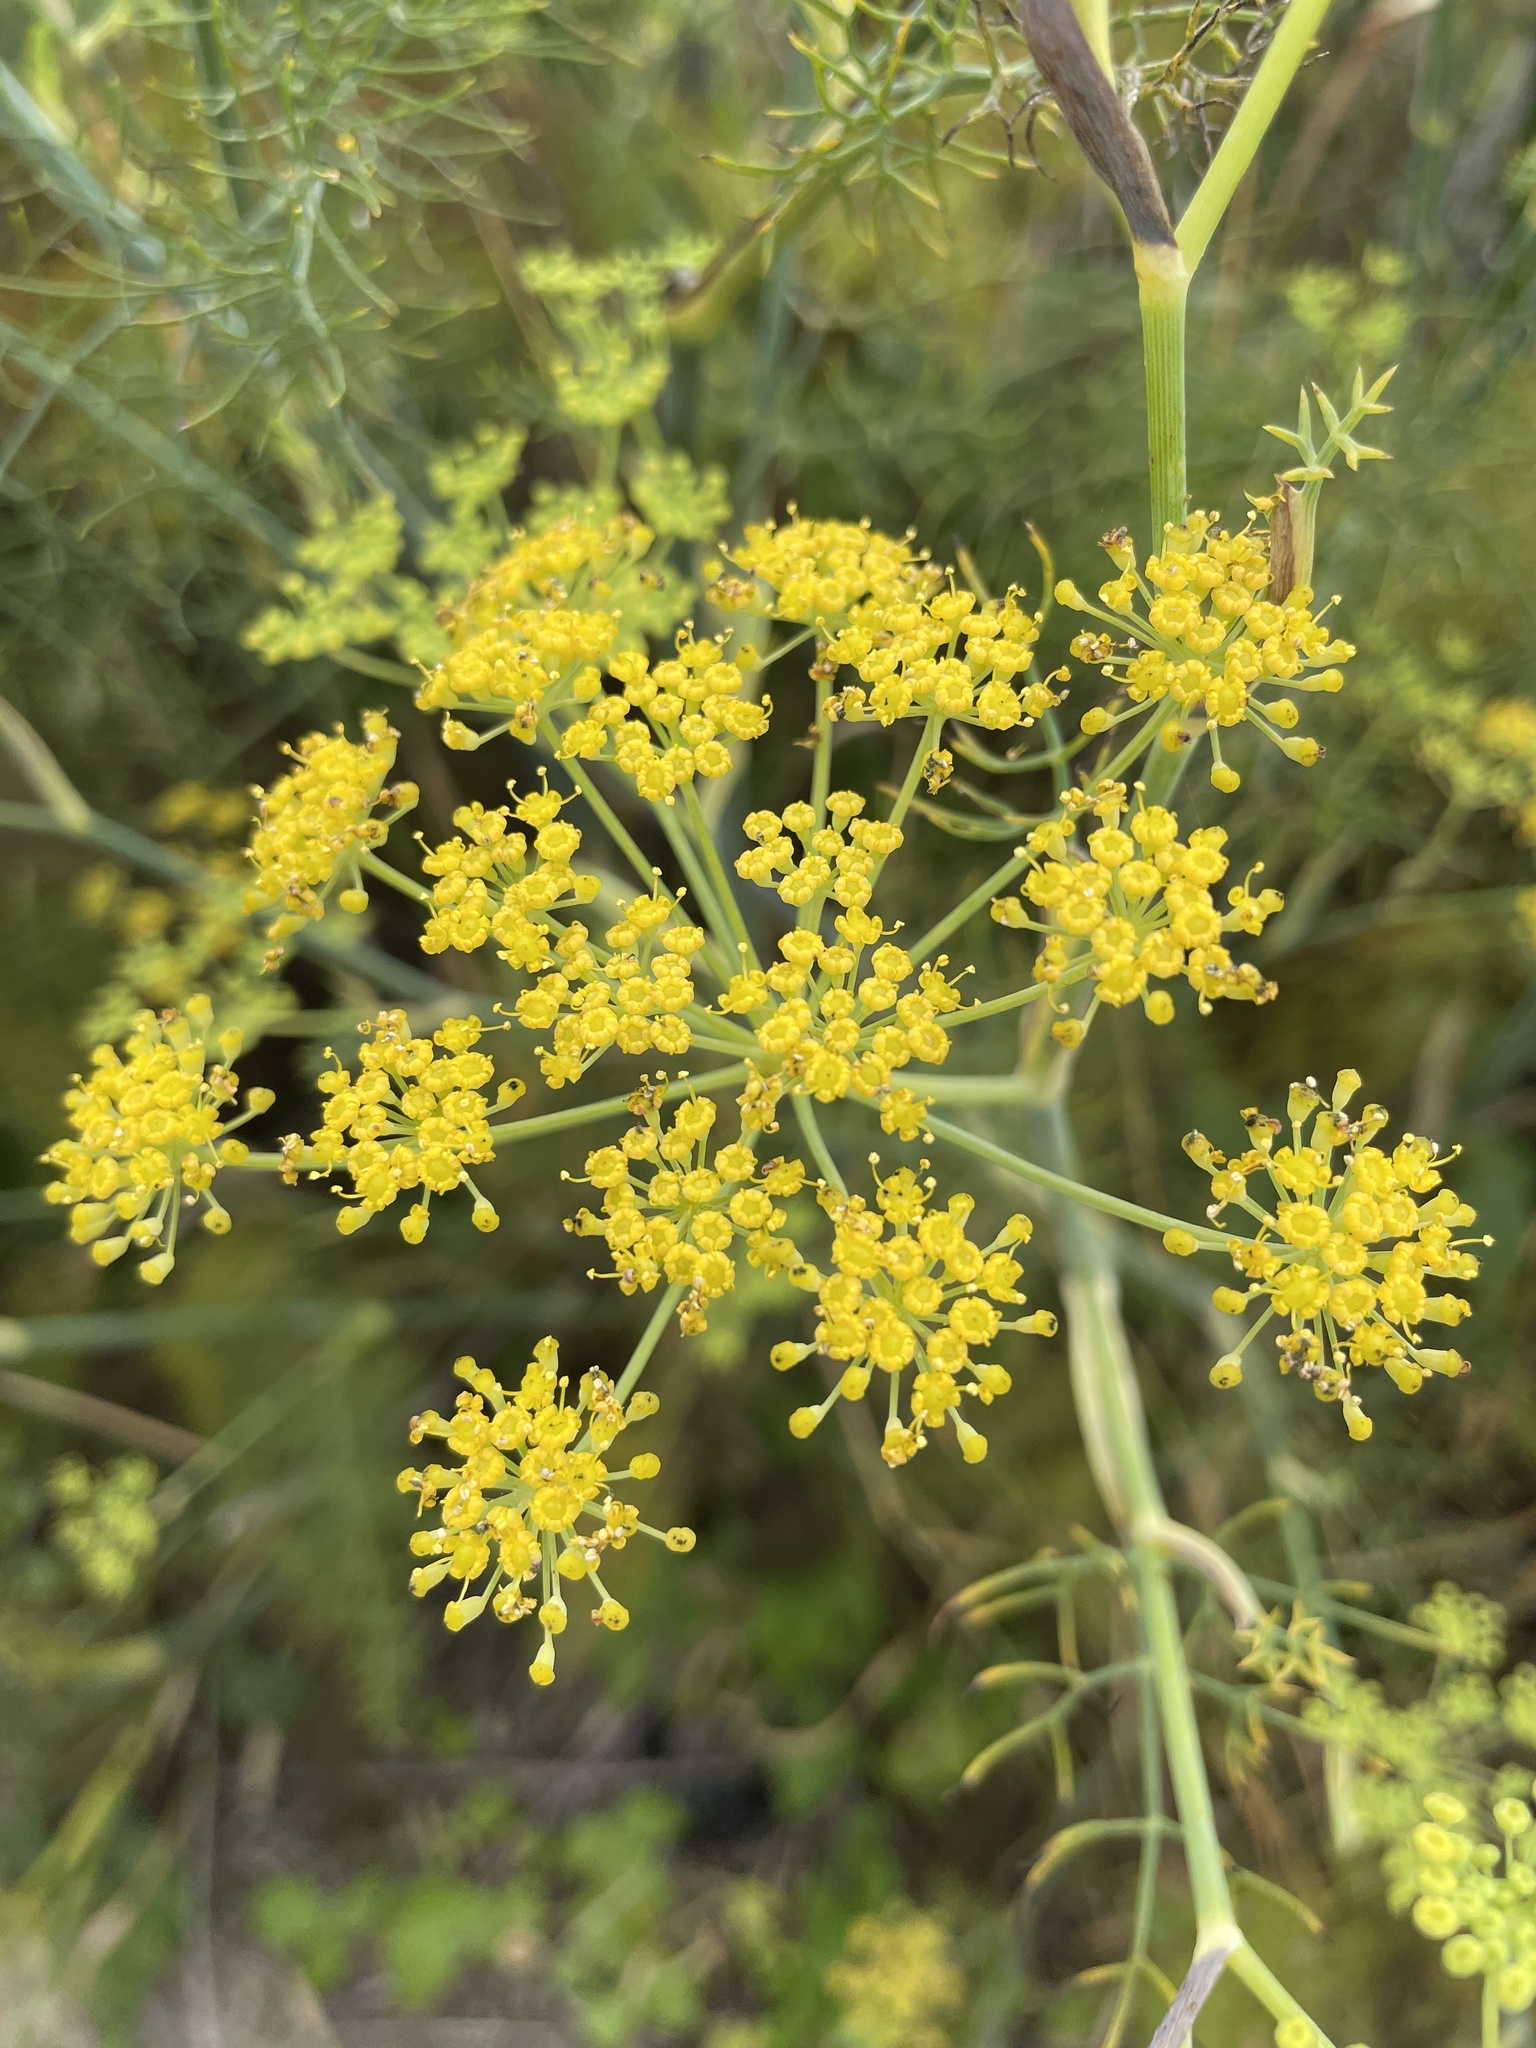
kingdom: Plantae
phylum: Tracheophyta
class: Magnoliopsida
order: Apiales
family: Apiaceae
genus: Foeniculum
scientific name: Foeniculum vulgare
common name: Fennel
